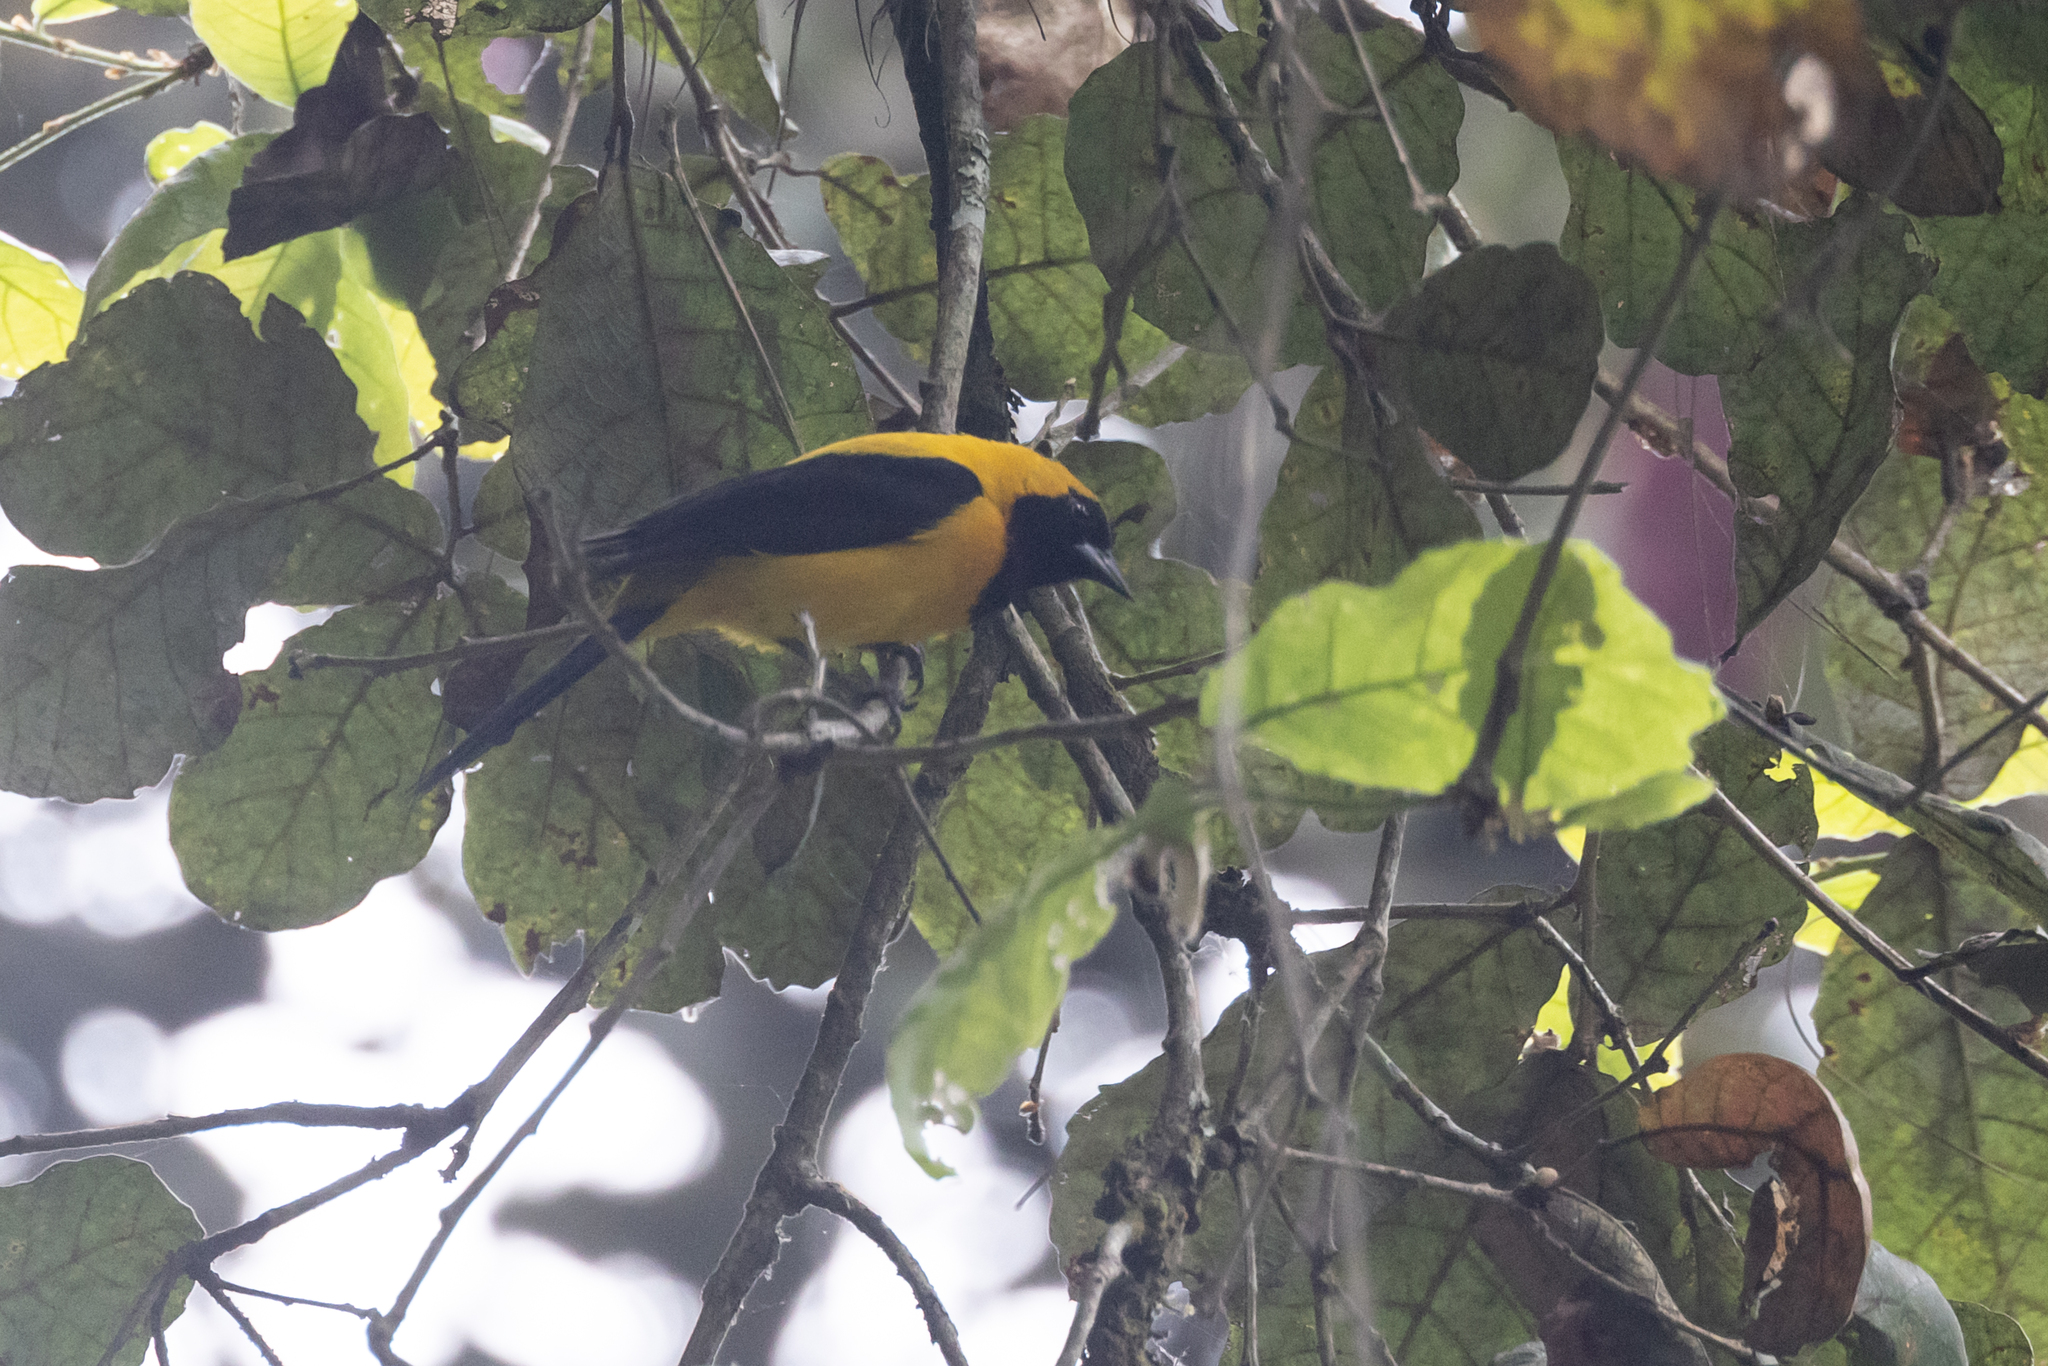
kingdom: Animalia
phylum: Chordata
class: Aves
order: Passeriformes
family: Icteridae
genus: Icterus
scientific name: Icterus chrysater
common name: Yellow-backed oriole
